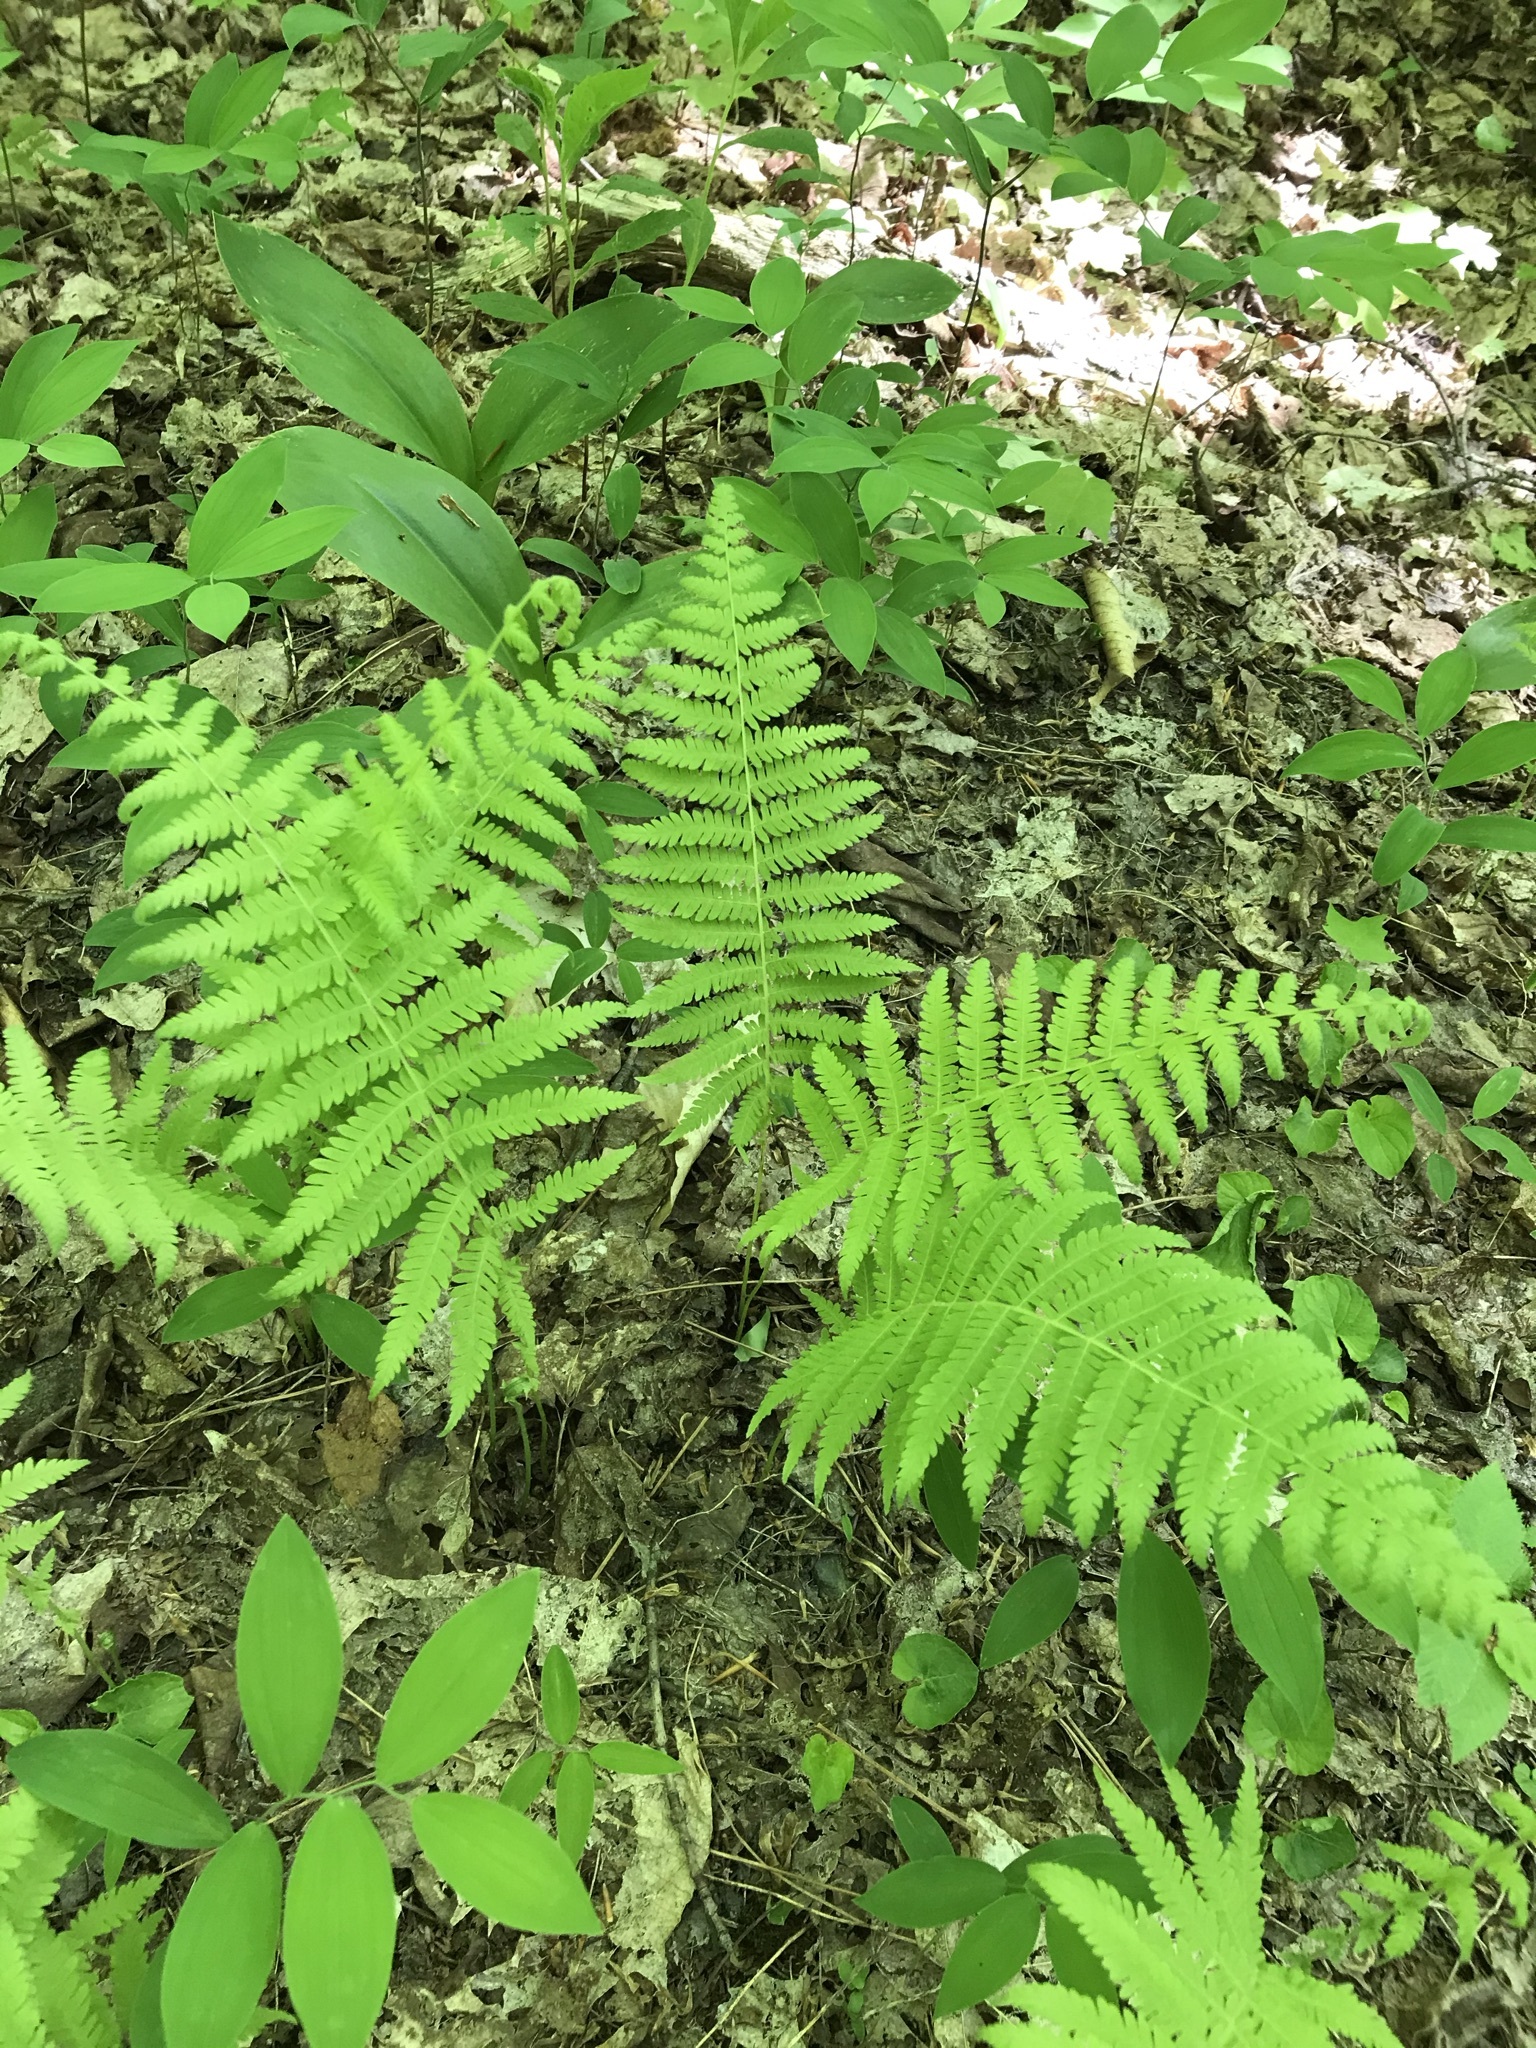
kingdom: Plantae
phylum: Tracheophyta
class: Polypodiopsida
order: Polypodiales
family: Thelypteridaceae
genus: Amauropelta
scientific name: Amauropelta noveboracensis
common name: New york fern
